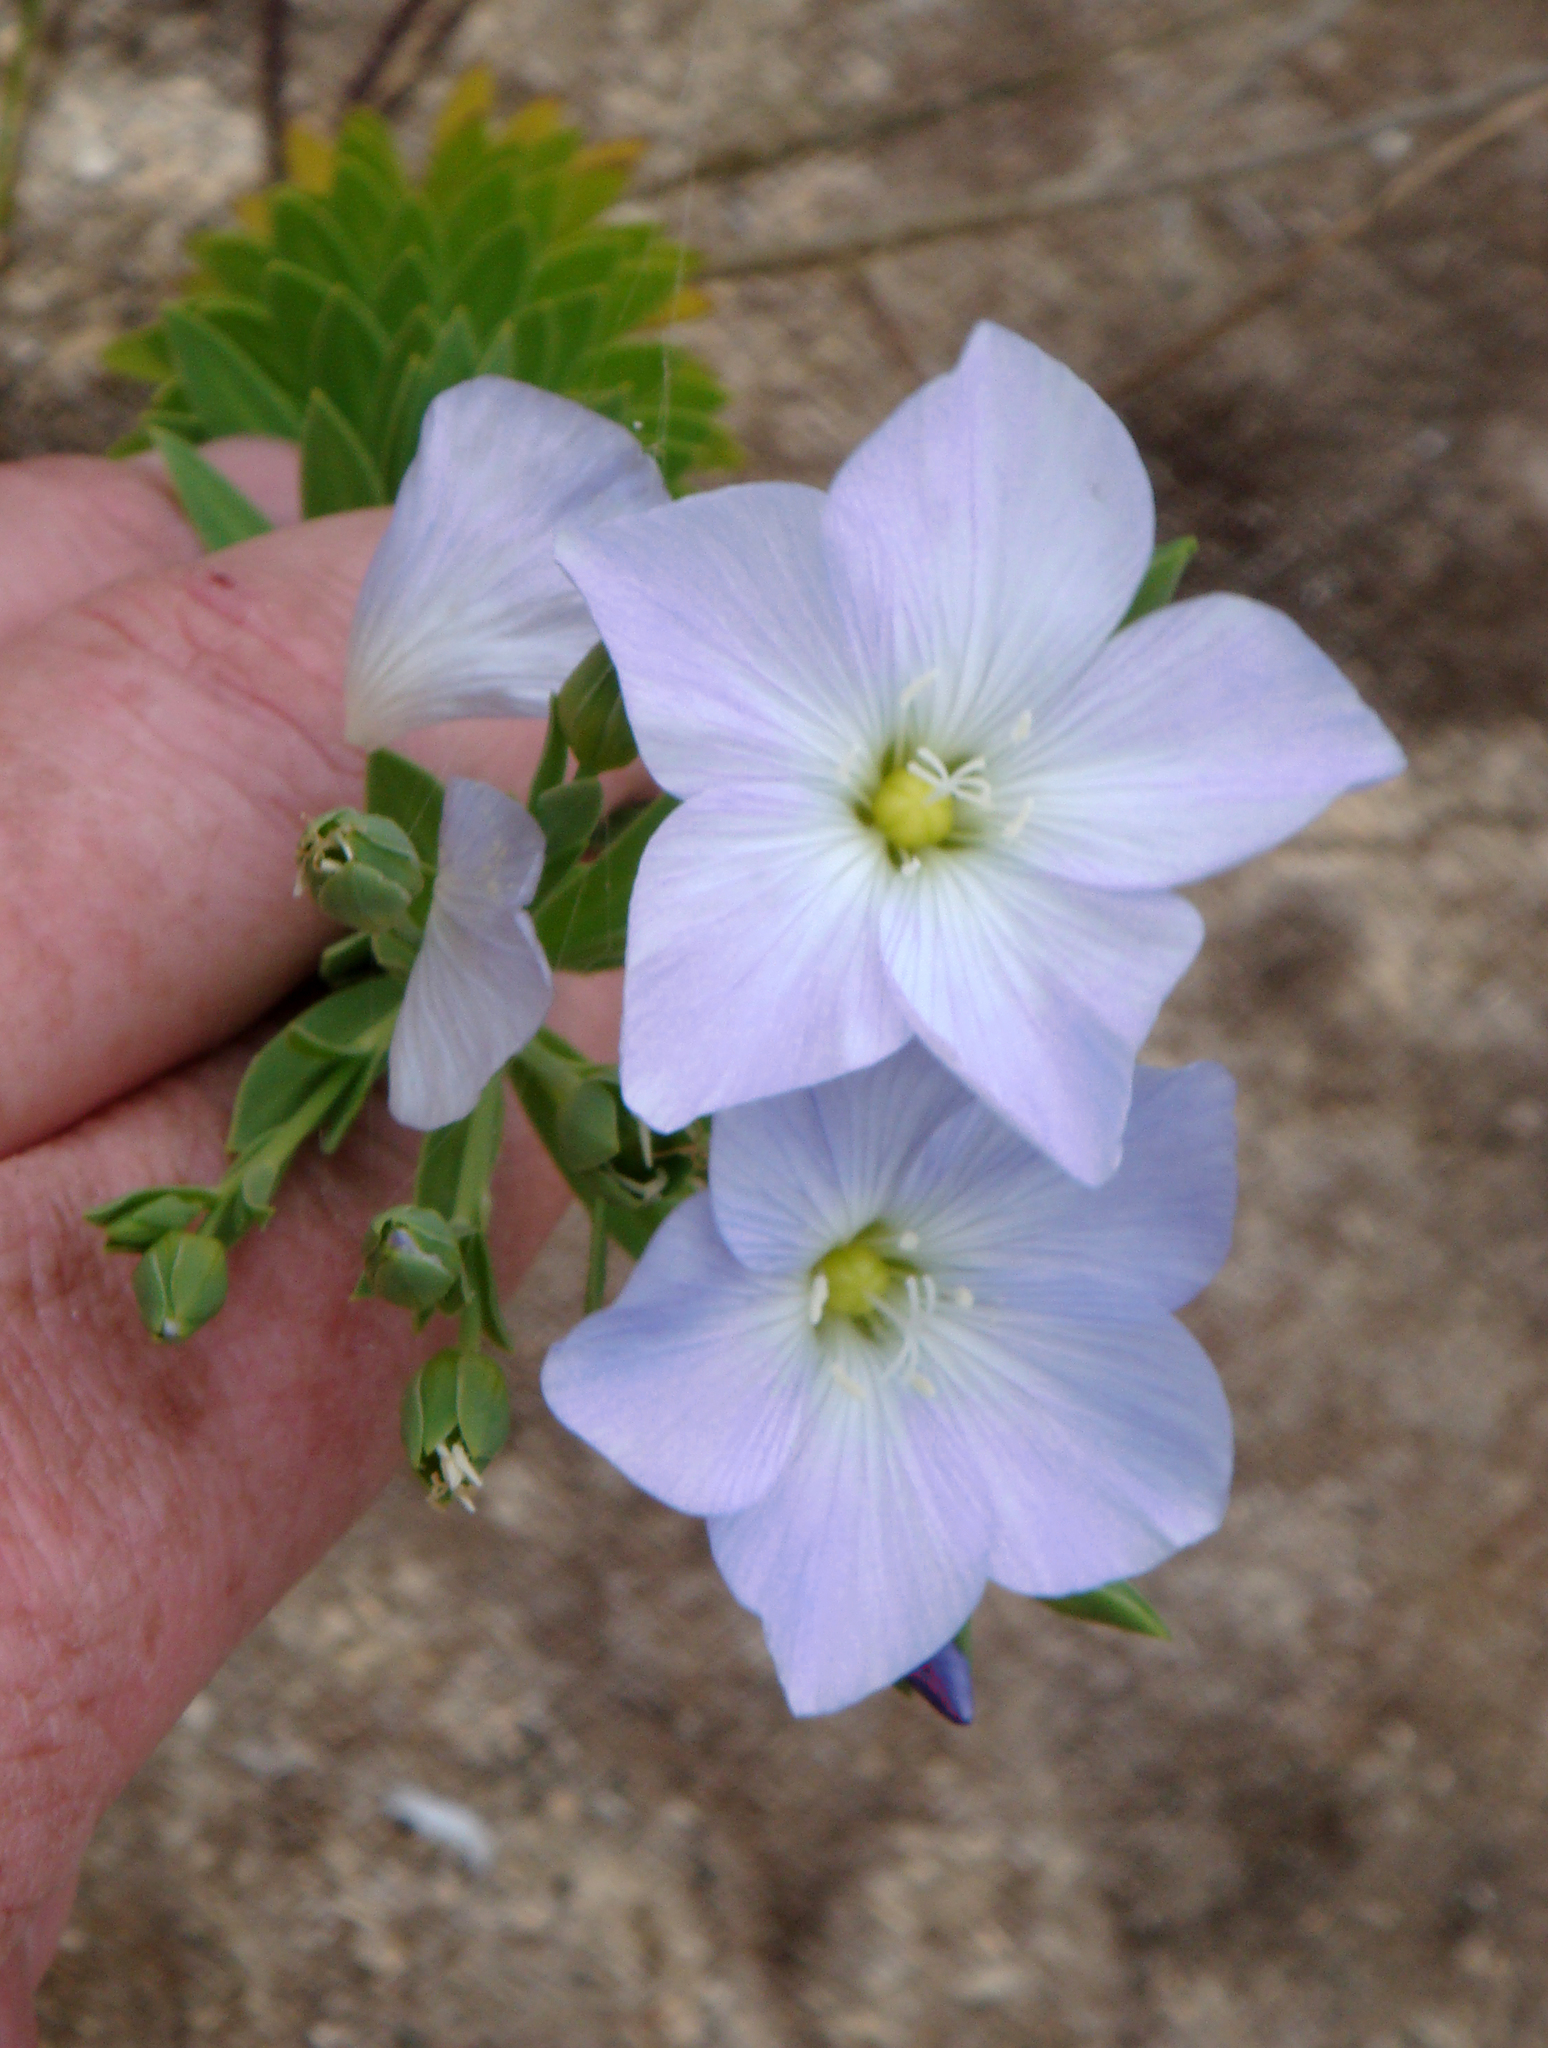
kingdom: Plantae
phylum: Tracheophyta
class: Magnoliopsida
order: Malpighiales
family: Linaceae
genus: Linum
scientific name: Linum monogynum
